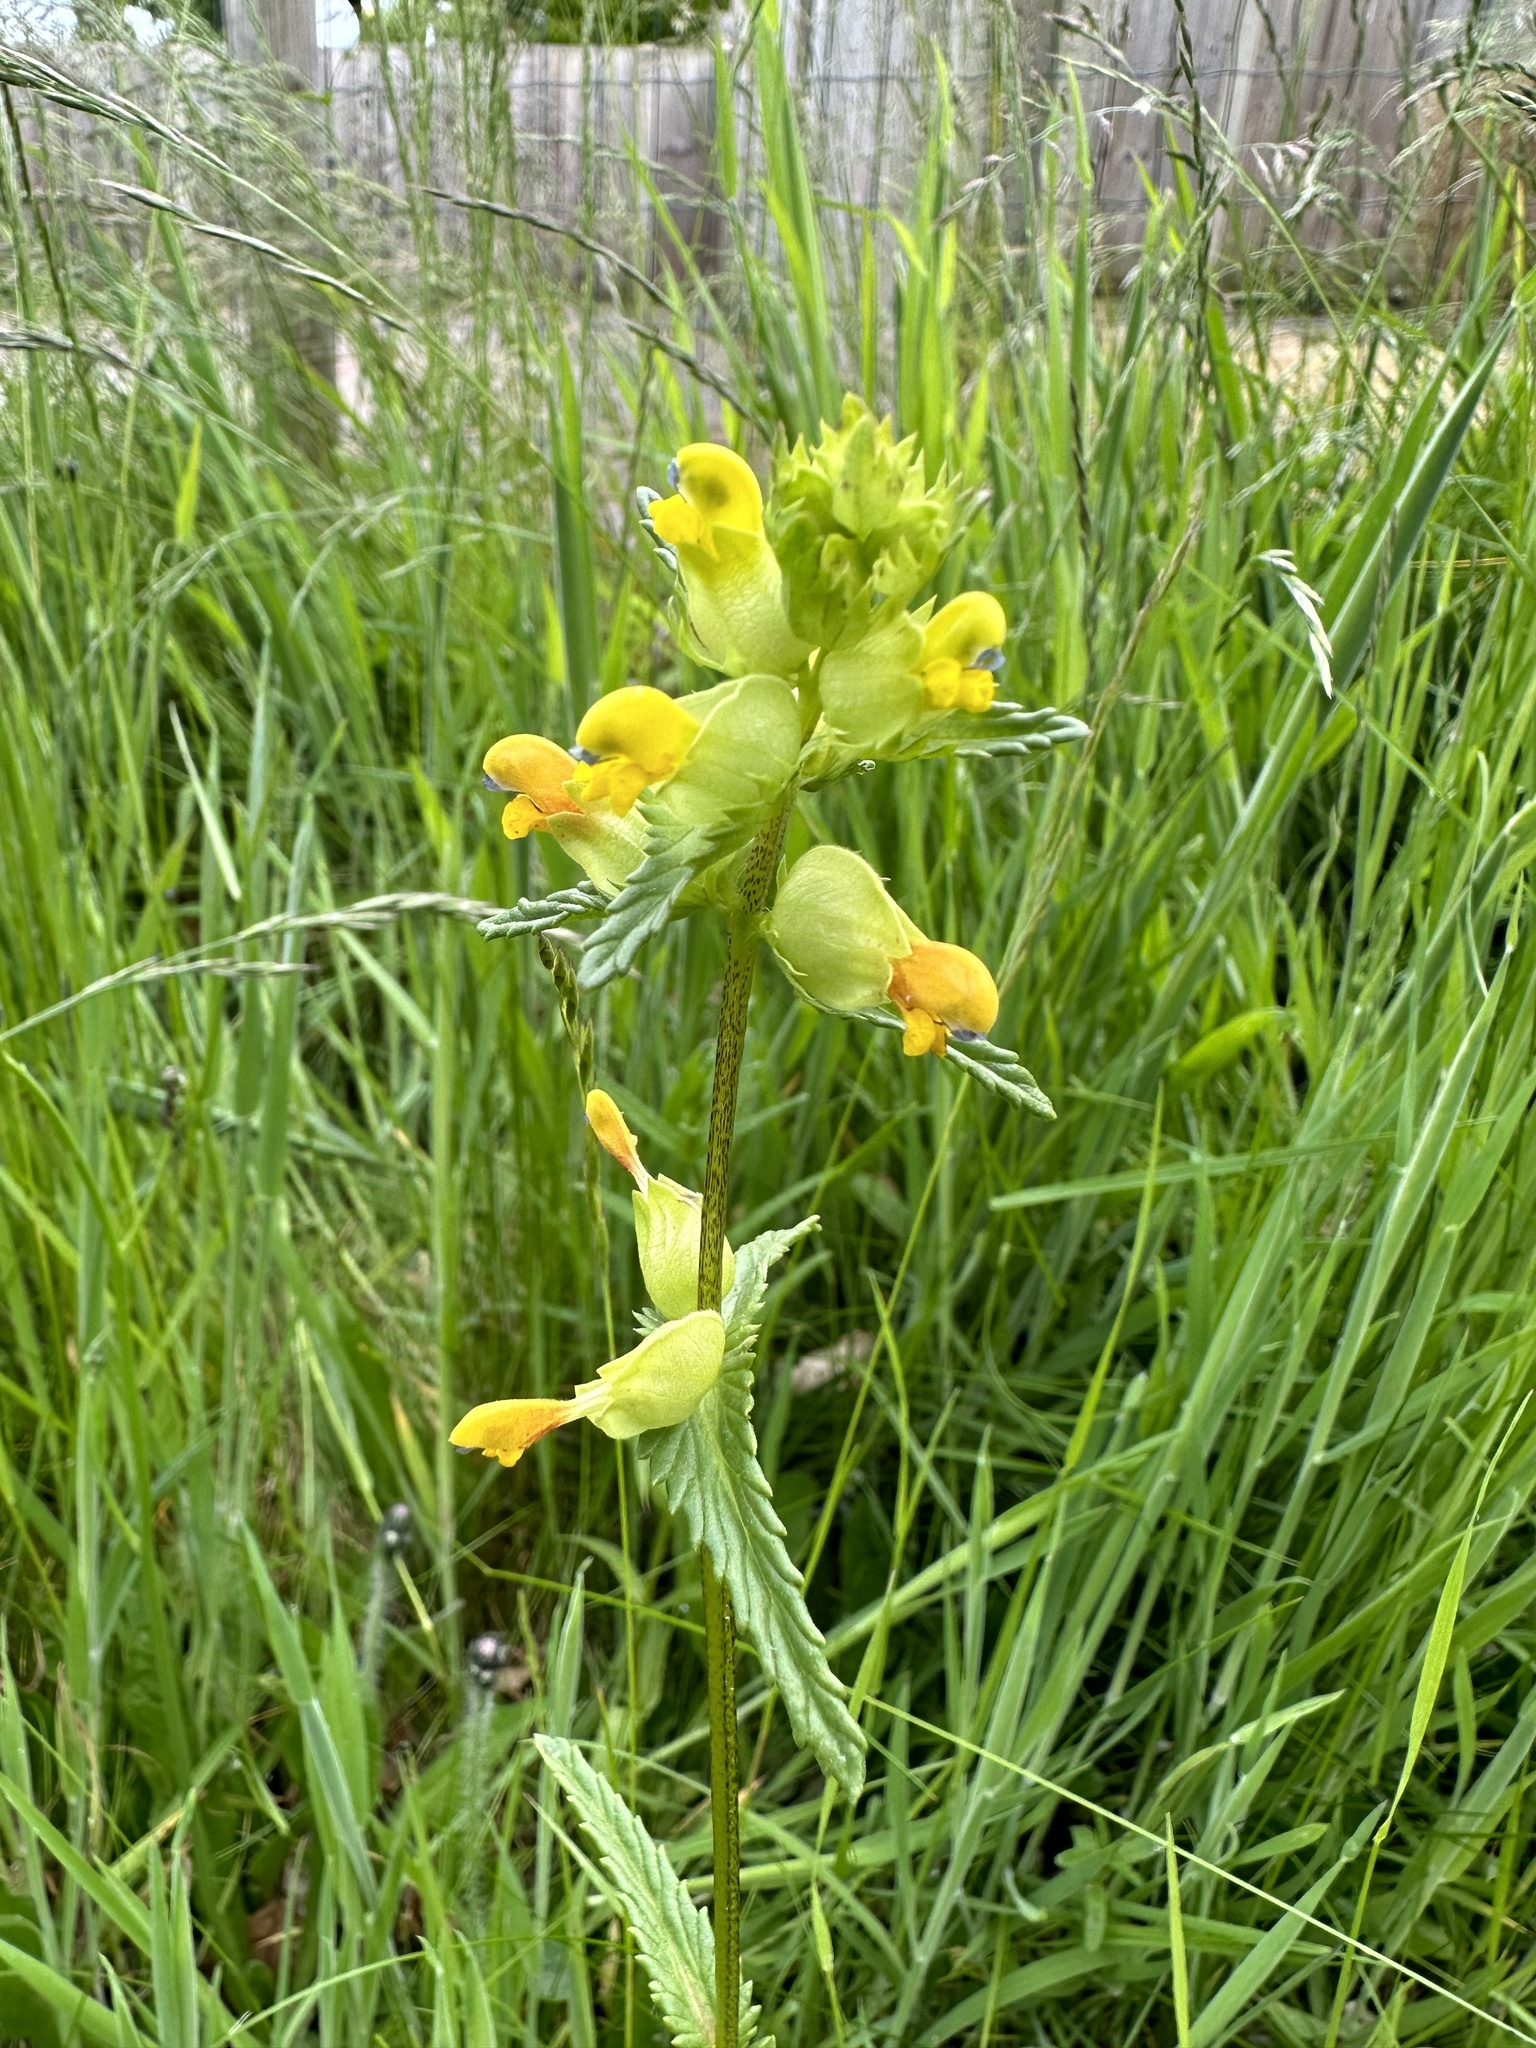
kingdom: Plantae
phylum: Tracheophyta
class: Magnoliopsida
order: Lamiales
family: Orobanchaceae
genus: Rhinanthus
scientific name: Rhinanthus minor
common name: Yellow-rattle
